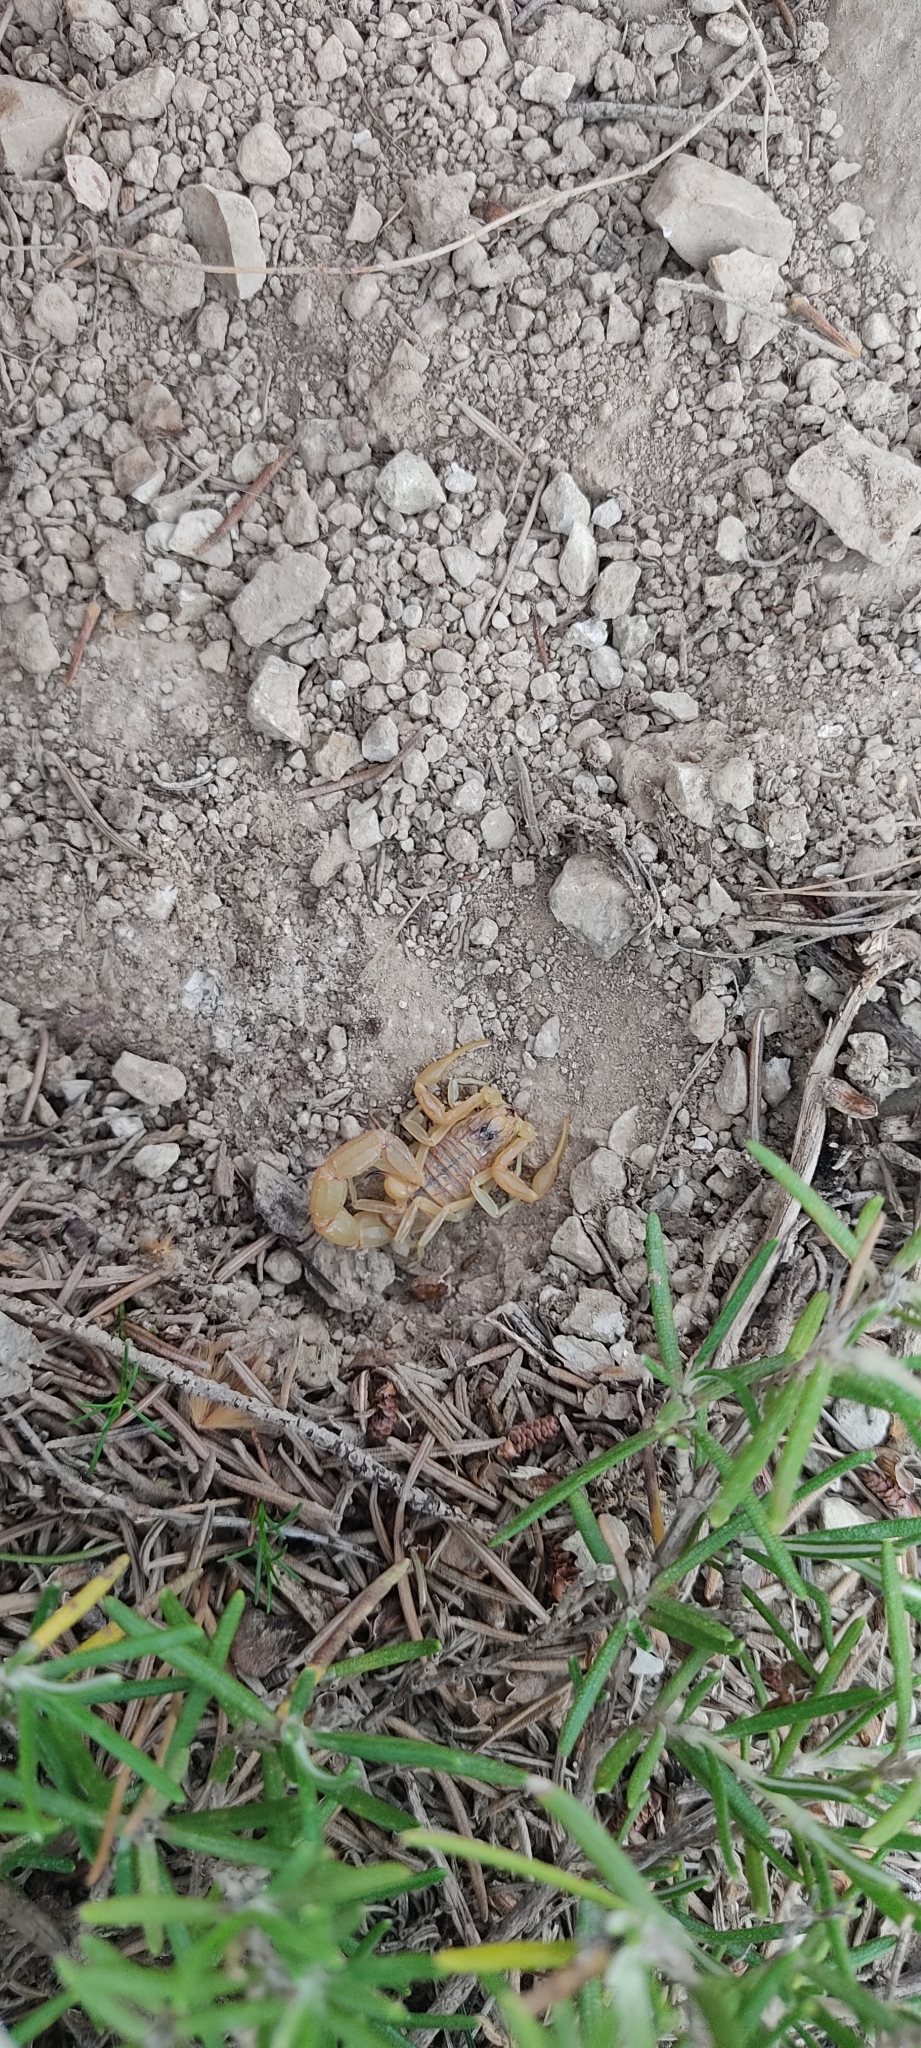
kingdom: Animalia
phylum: Arthropoda
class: Arachnida
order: Scorpiones
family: Buthidae
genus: Buthus
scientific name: Buthus occitanus
